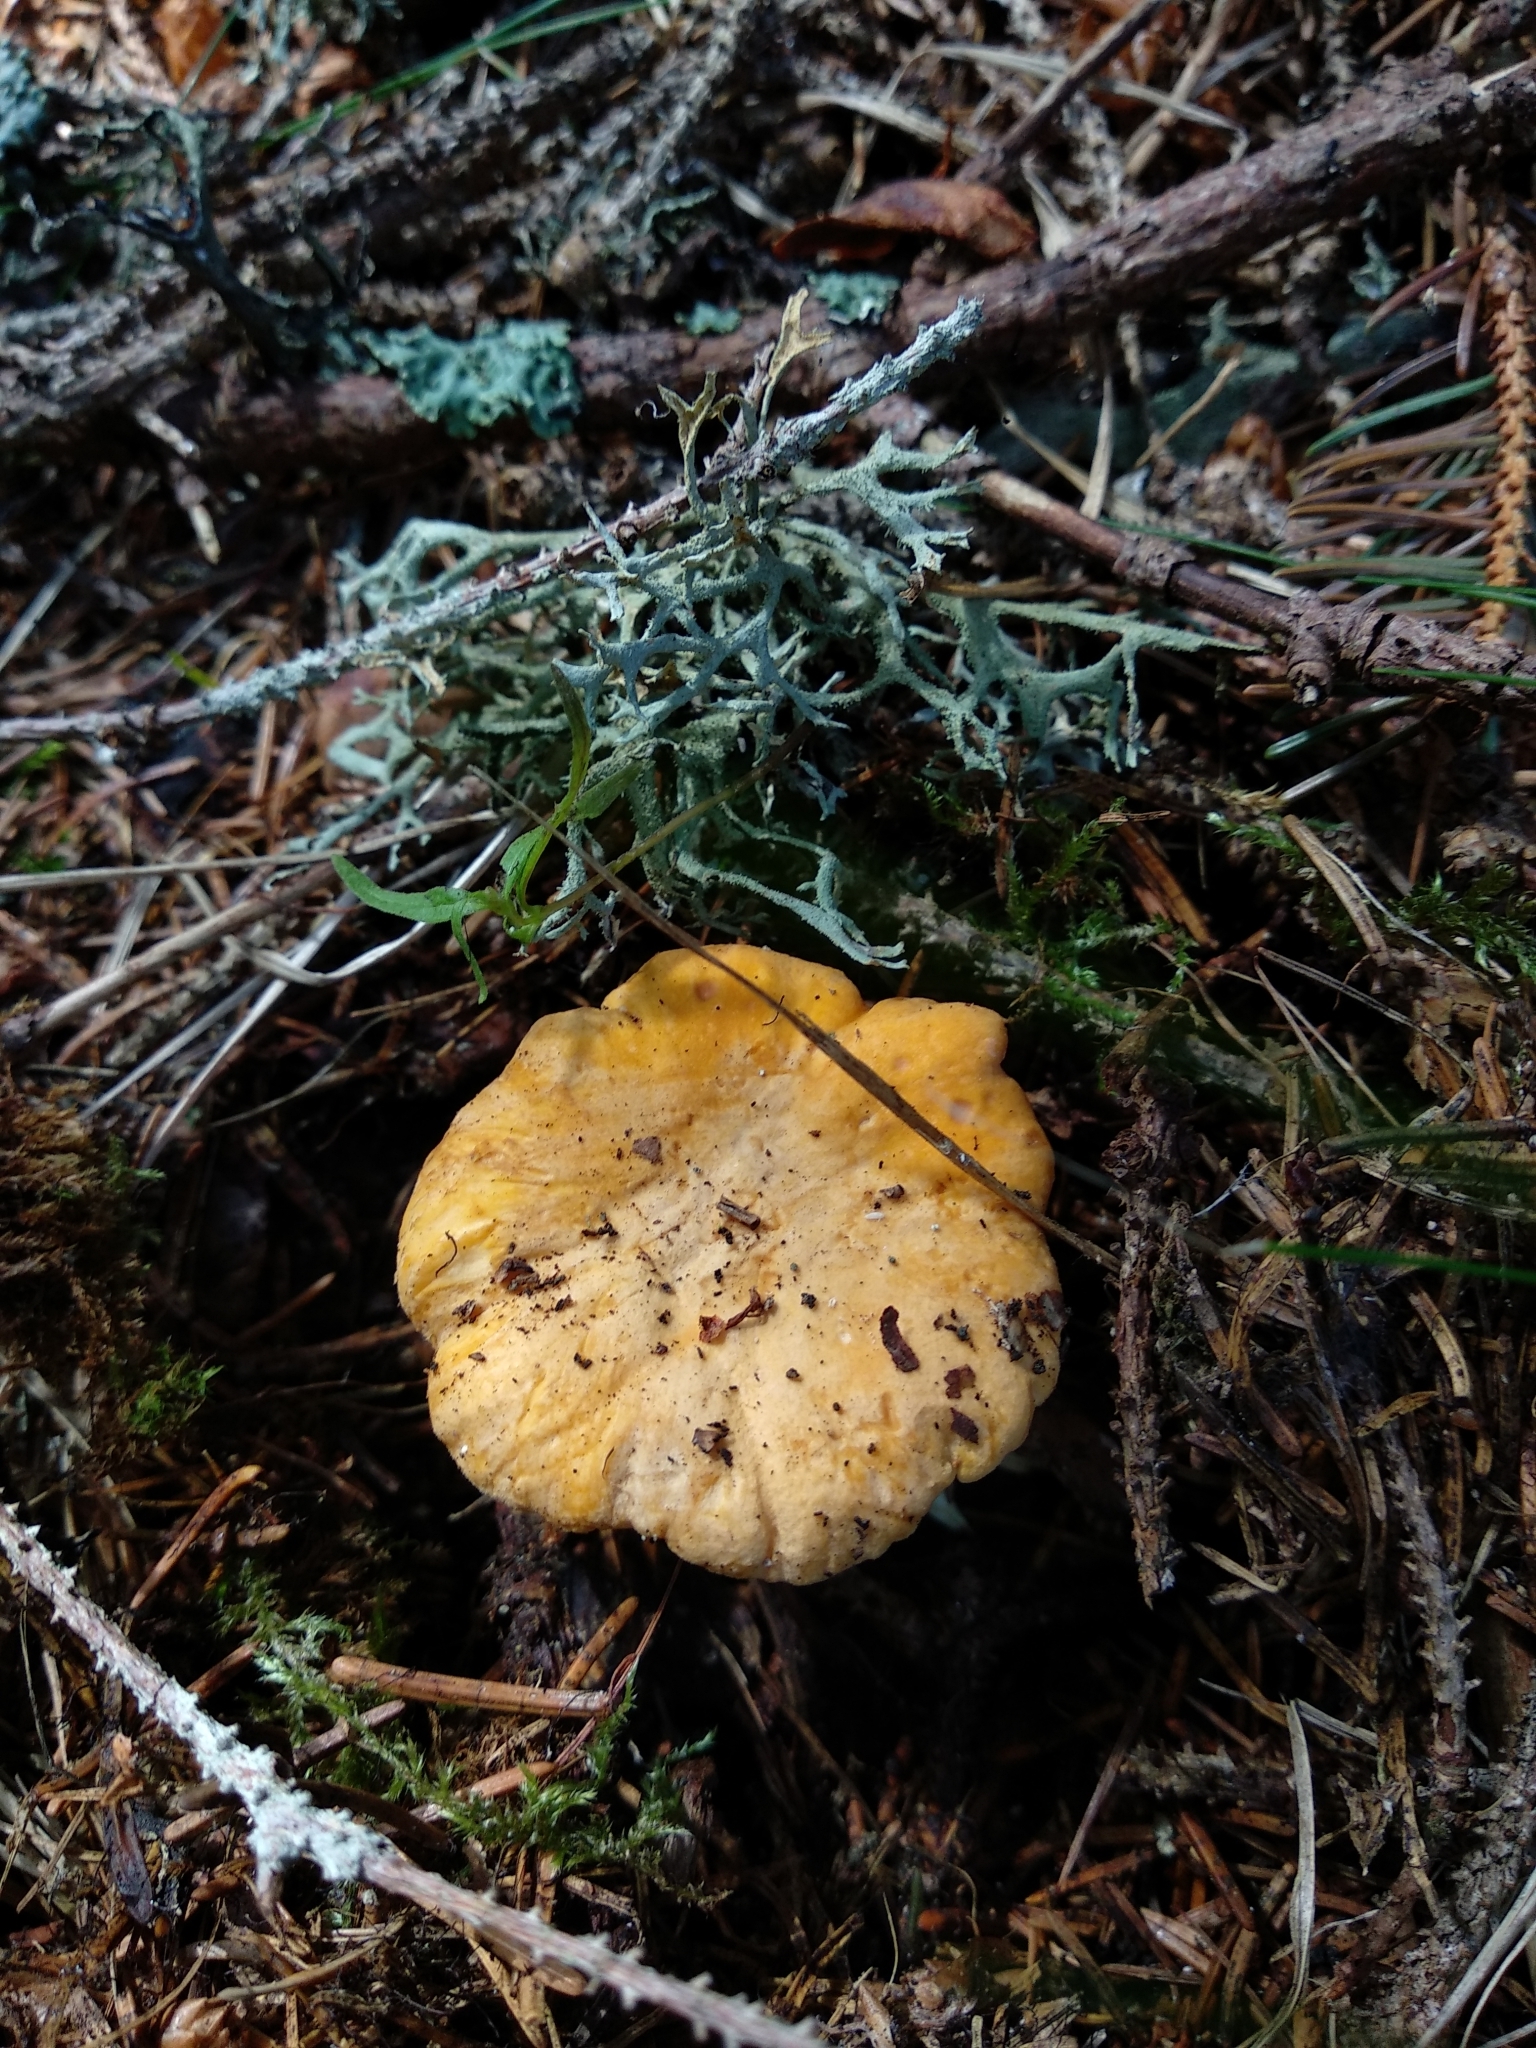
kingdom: Fungi
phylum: Basidiomycota
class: Agaricomycetes
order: Cantharellales
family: Hydnaceae
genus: Cantharellus
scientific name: Cantharellus cibarius
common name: Chanterelle
